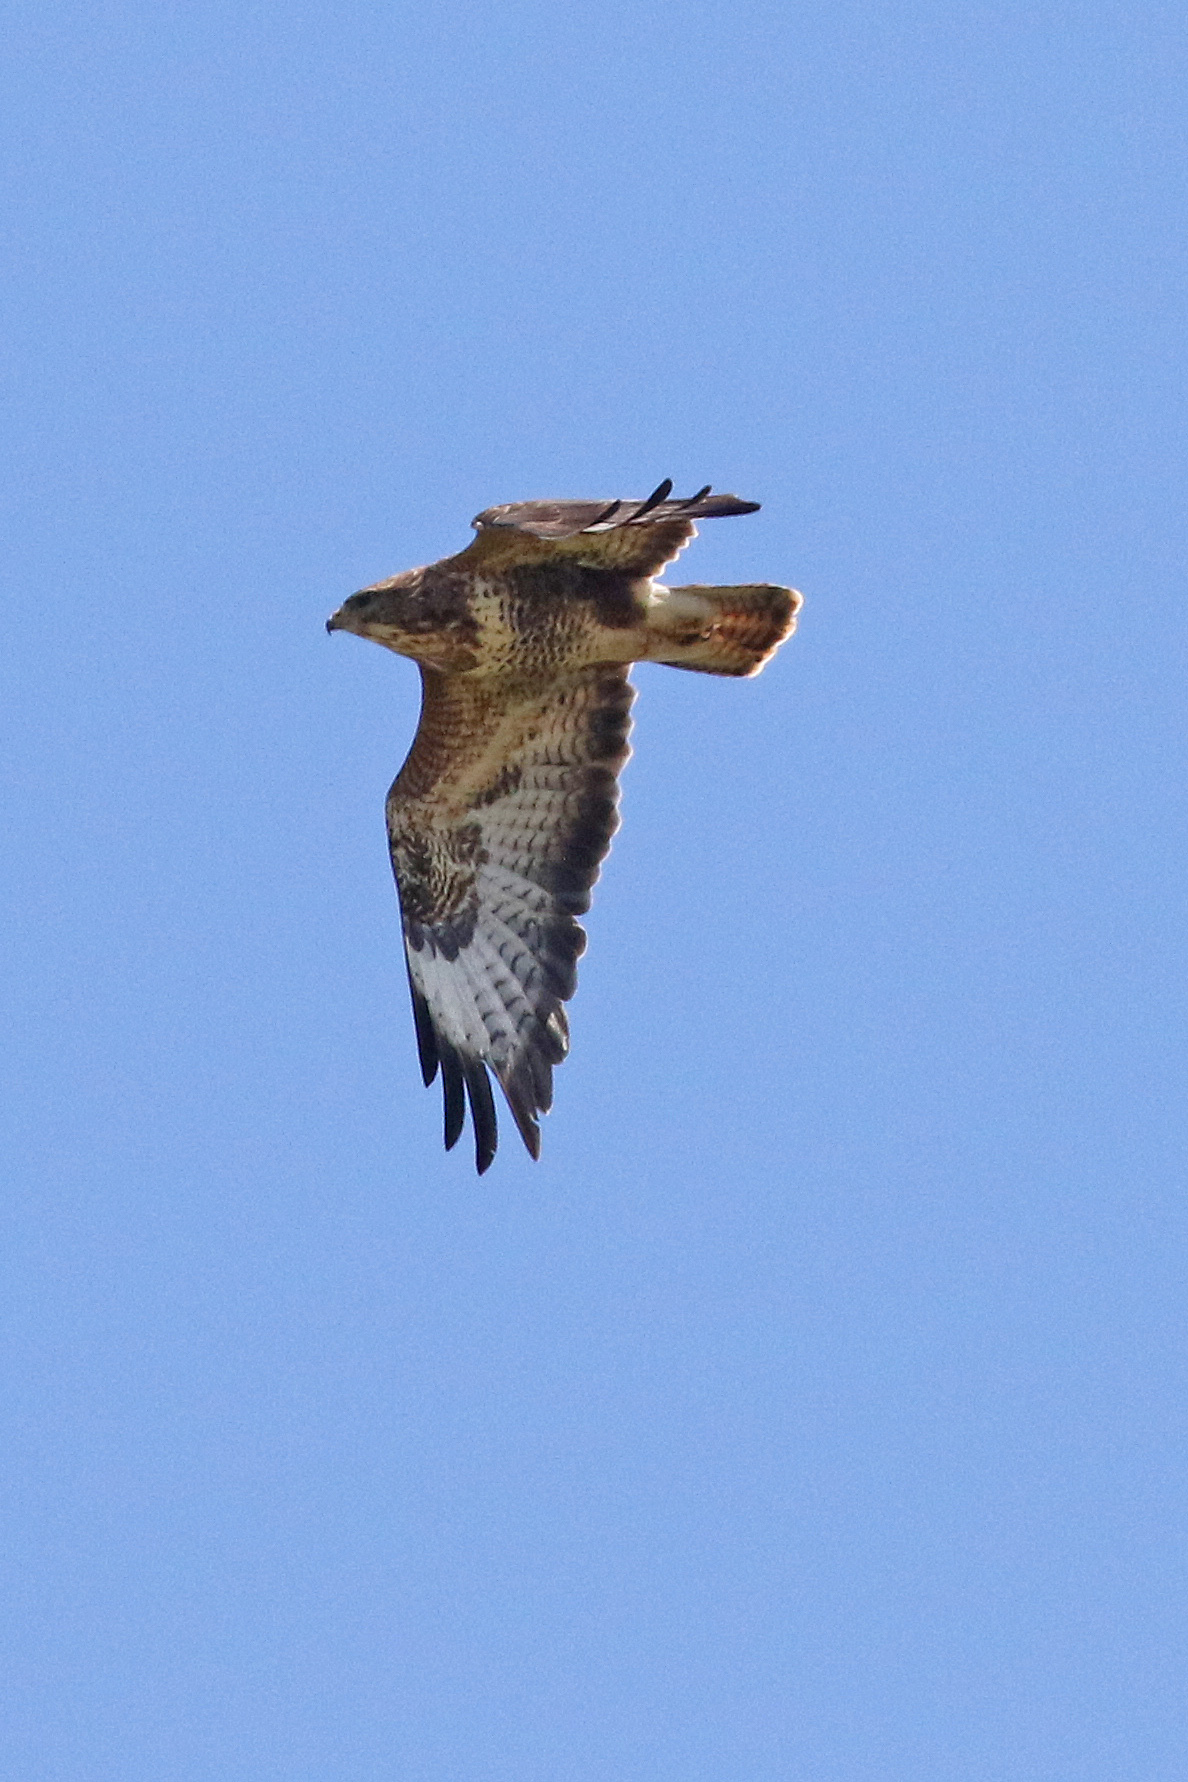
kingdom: Animalia
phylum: Chordata
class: Aves
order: Accipitriformes
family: Accipitridae
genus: Buteo
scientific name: Buteo buteo
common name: Common buzzard
